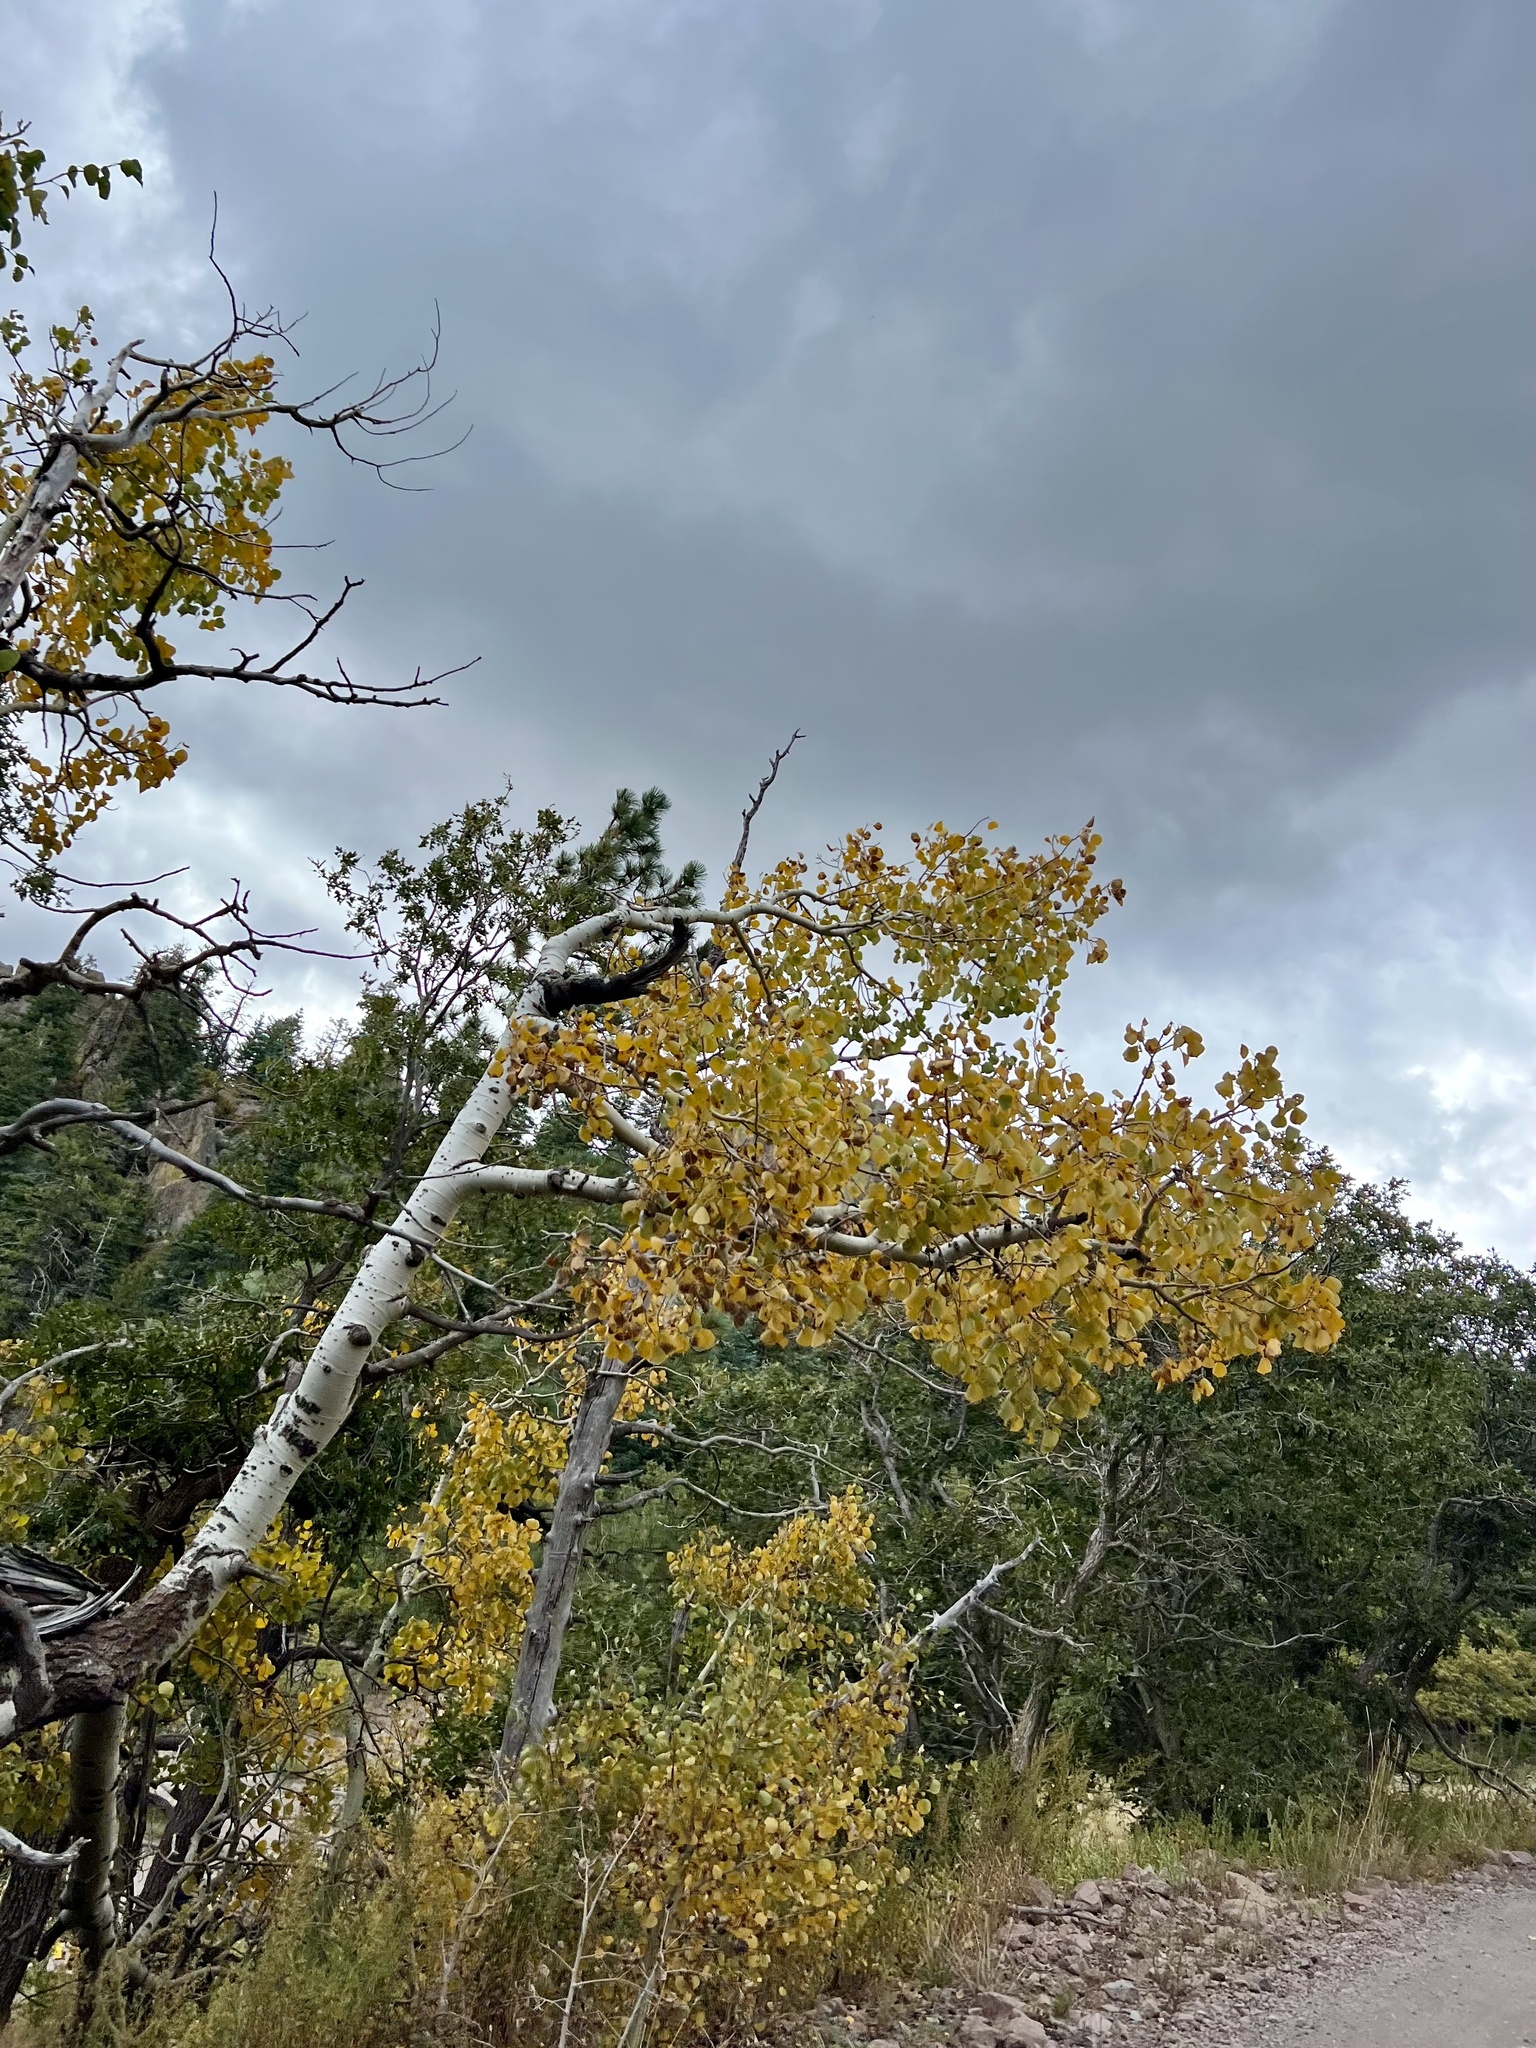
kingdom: Plantae
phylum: Tracheophyta
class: Magnoliopsida
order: Malpighiales
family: Salicaceae
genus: Populus
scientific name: Populus tremuloides
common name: Quaking aspen
